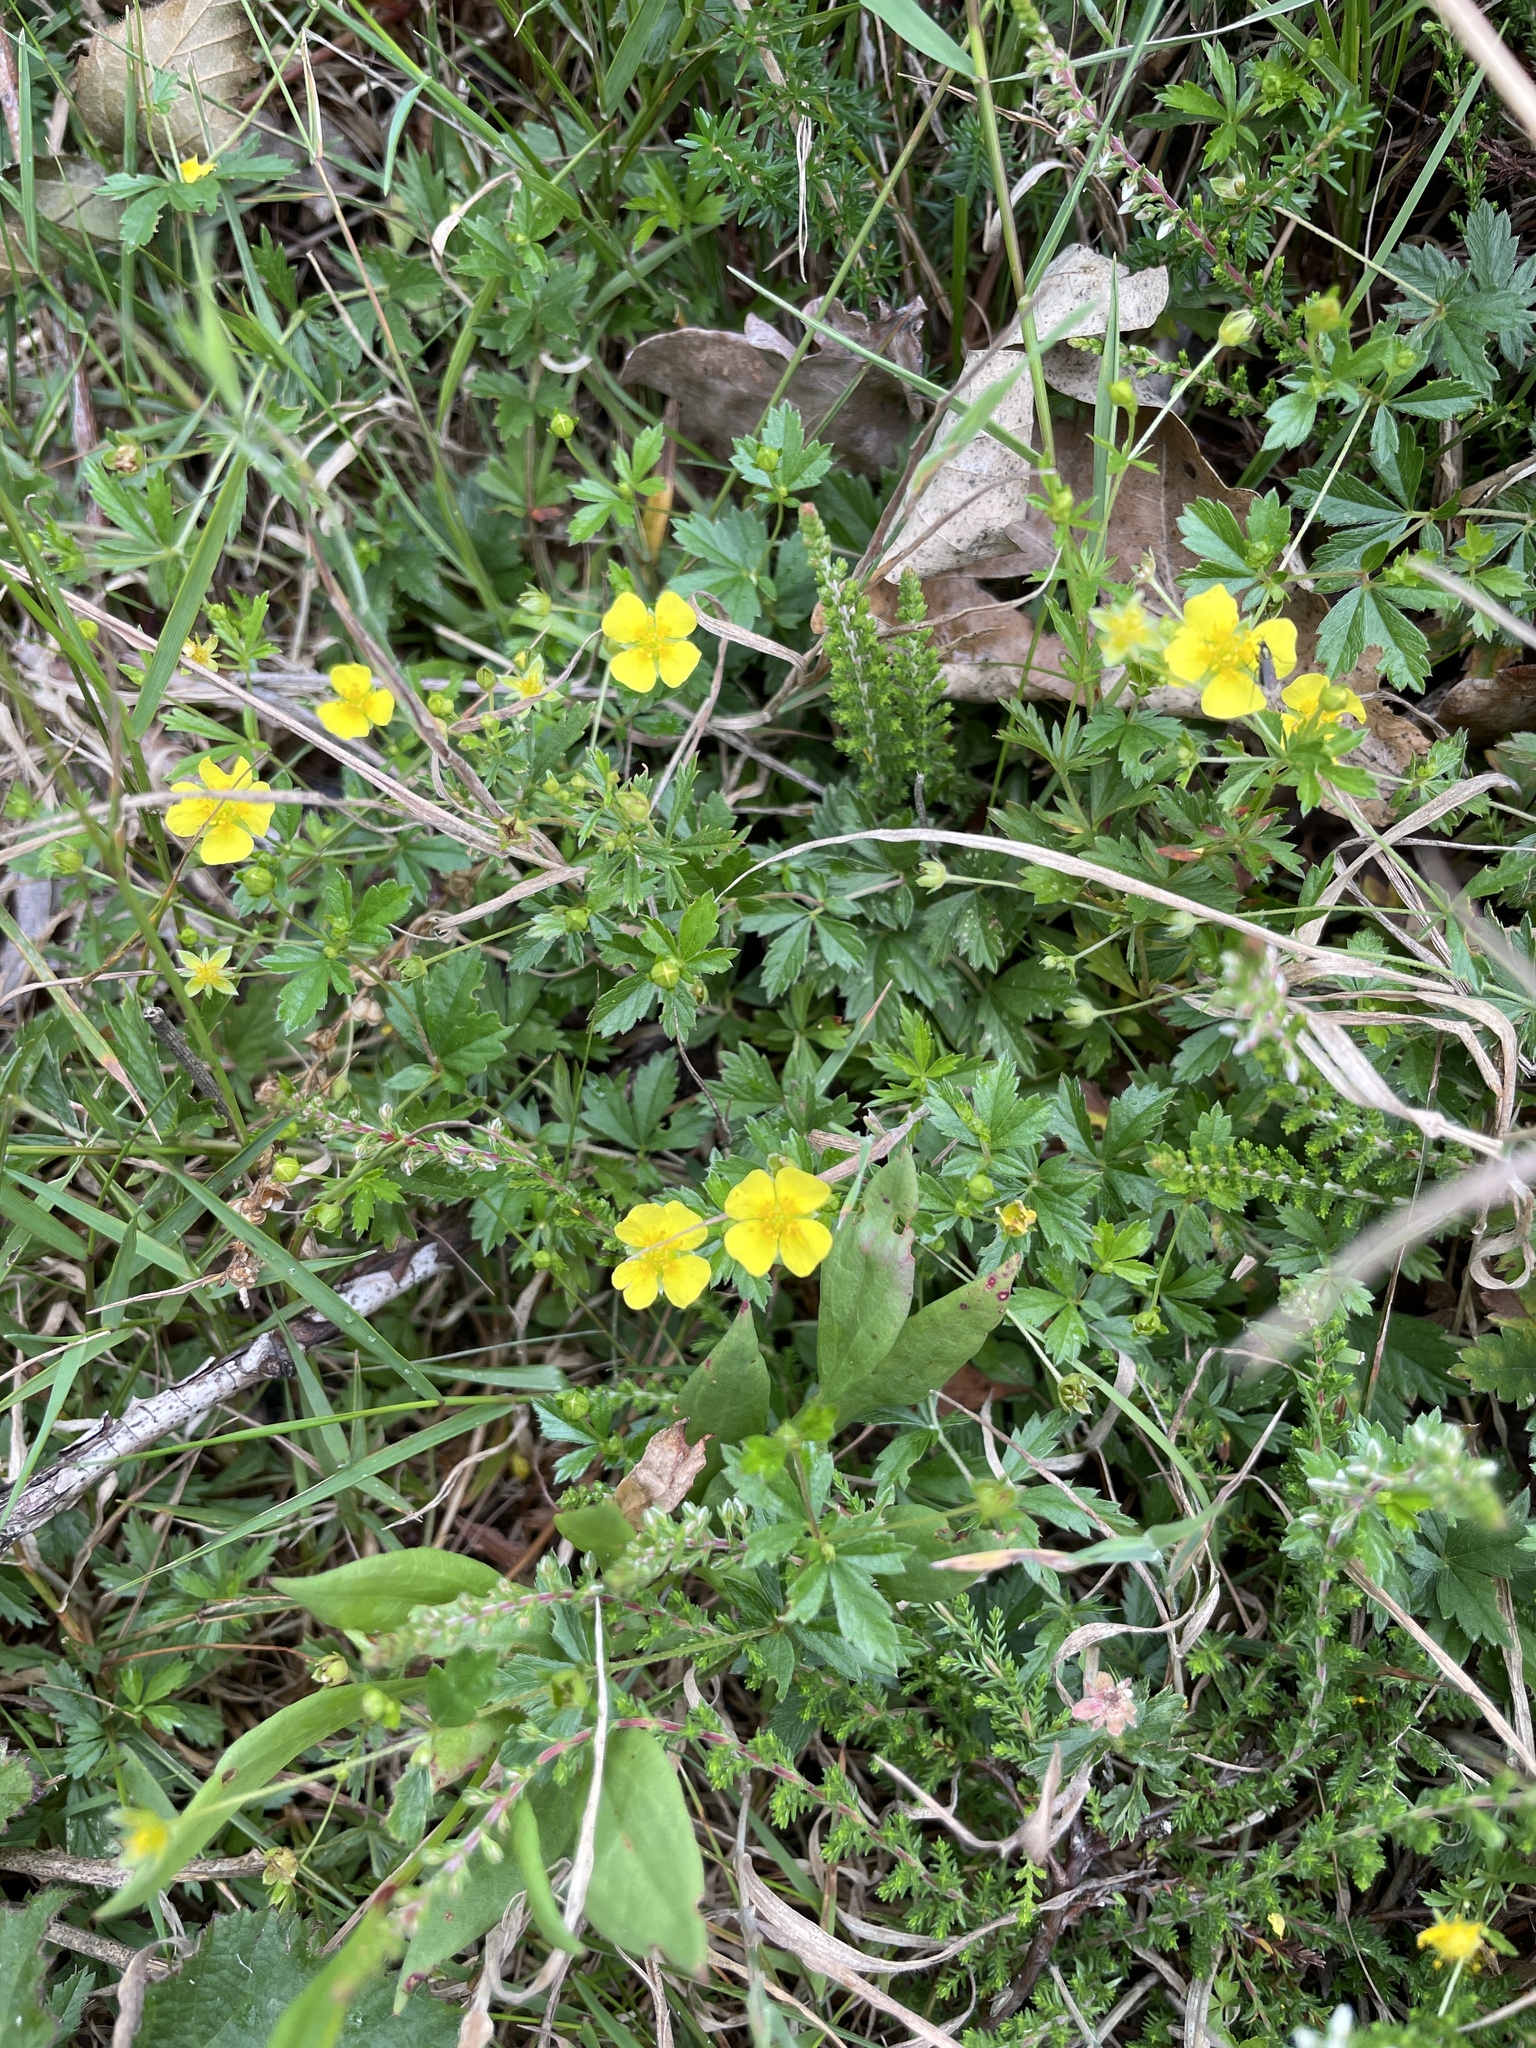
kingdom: Plantae
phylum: Tracheophyta
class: Magnoliopsida
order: Rosales
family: Rosaceae
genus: Potentilla
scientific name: Potentilla erecta
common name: Tormentil
